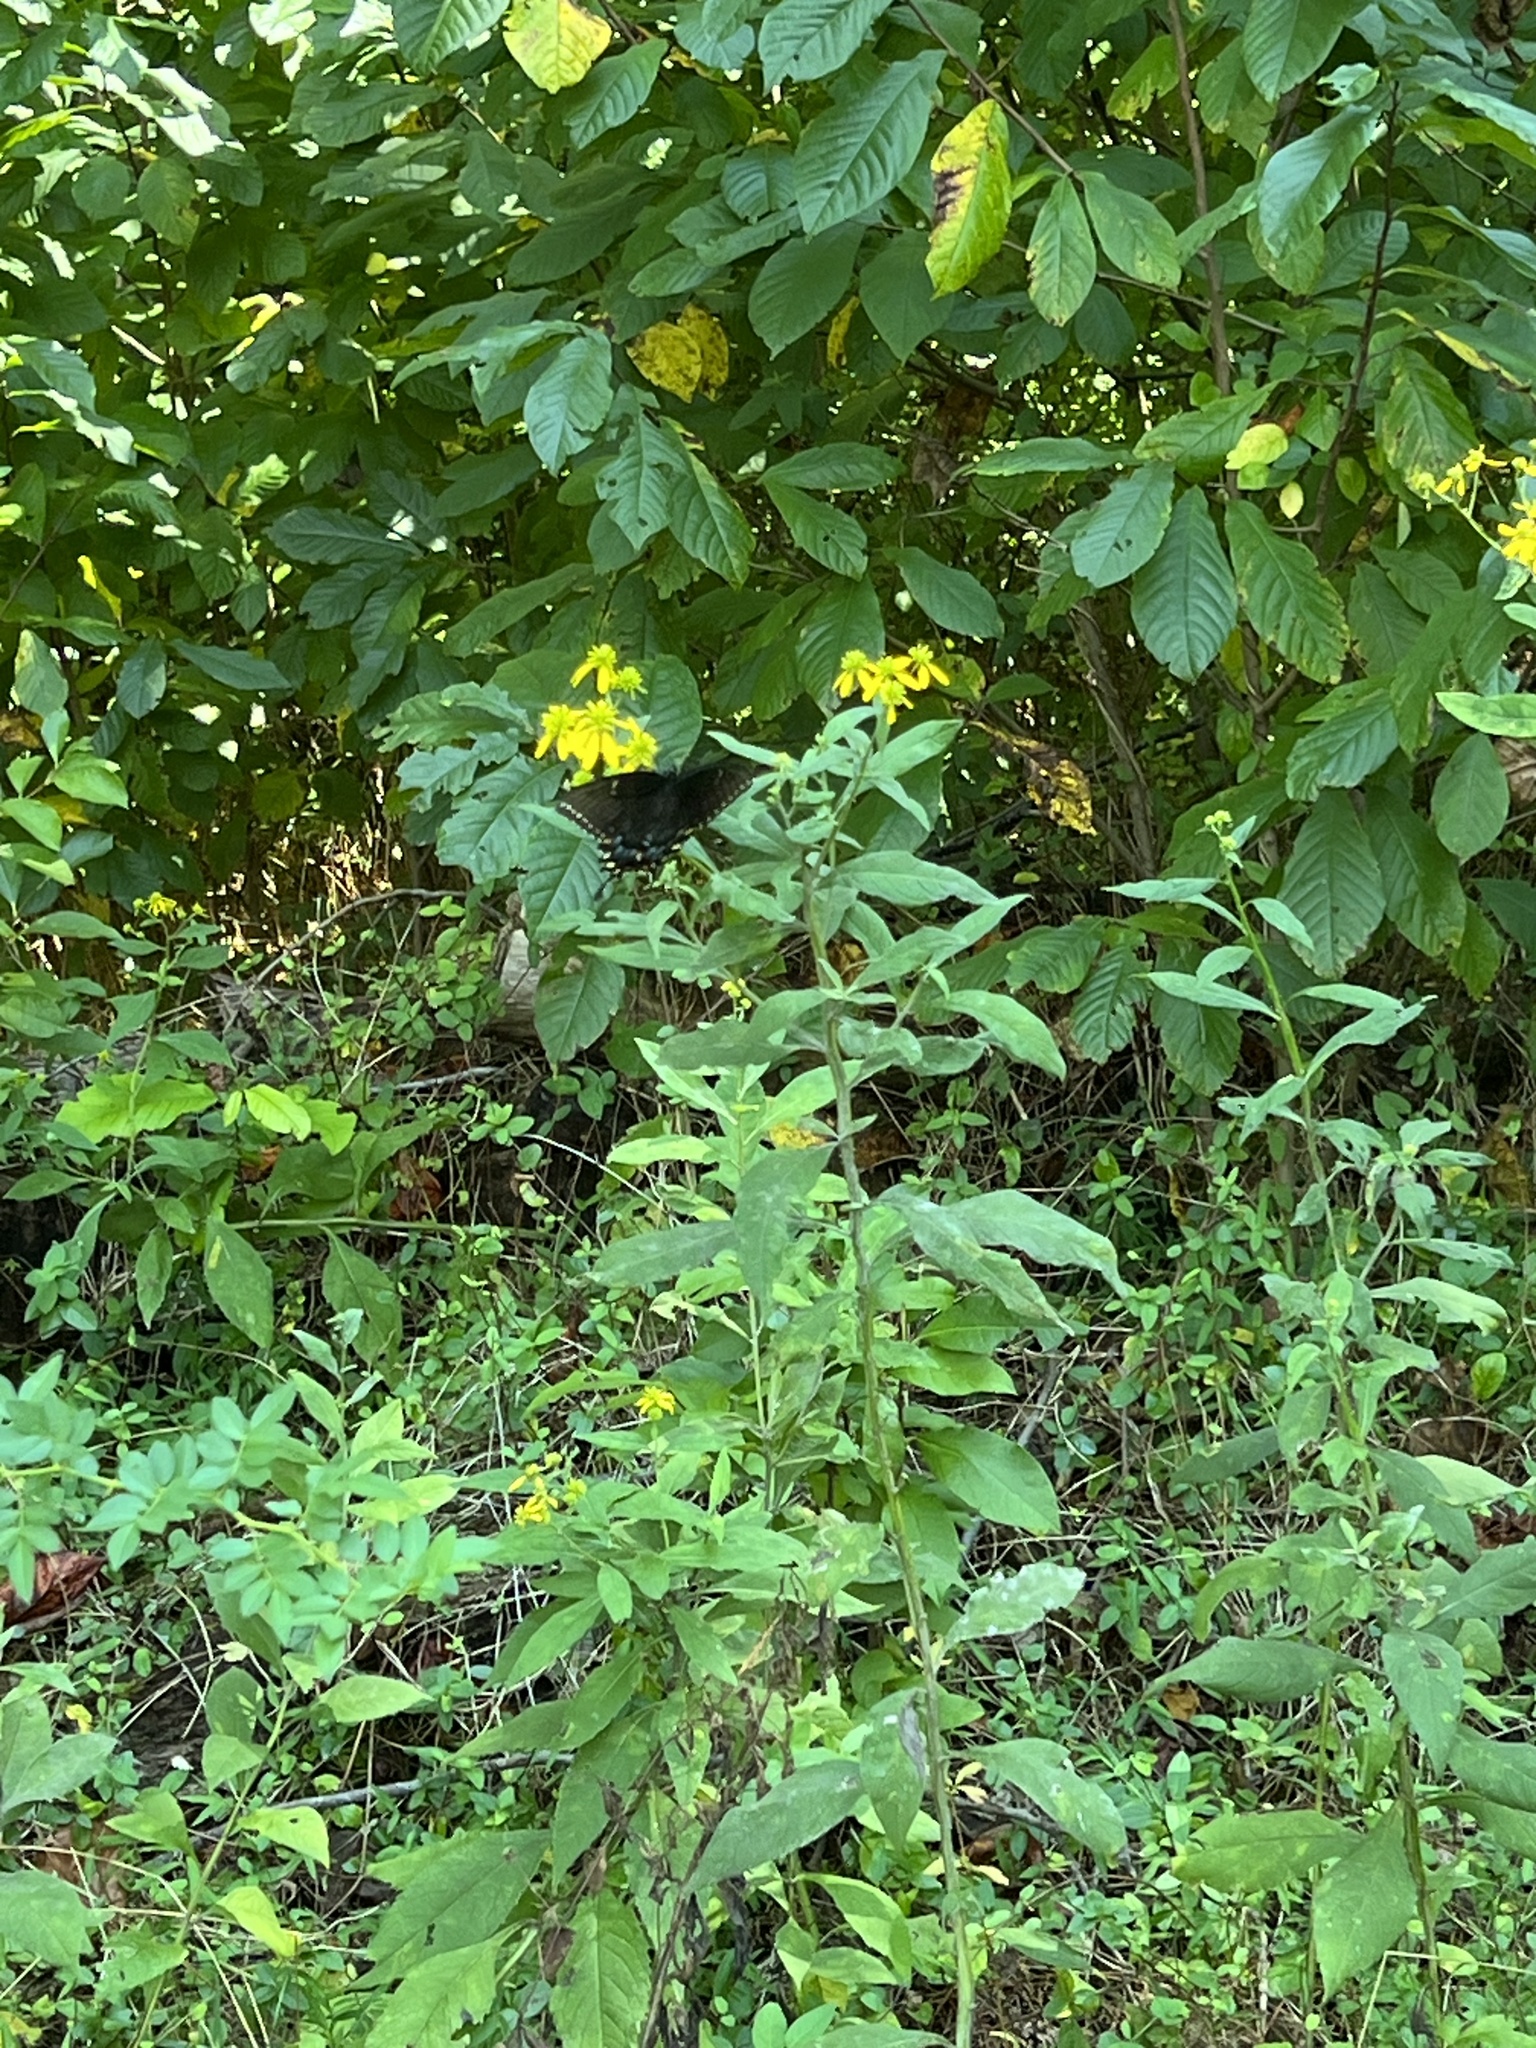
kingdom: Animalia
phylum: Arthropoda
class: Insecta
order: Lepidoptera
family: Papilionidae
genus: Papilio
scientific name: Papilio glaucus
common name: Tiger swallowtail
